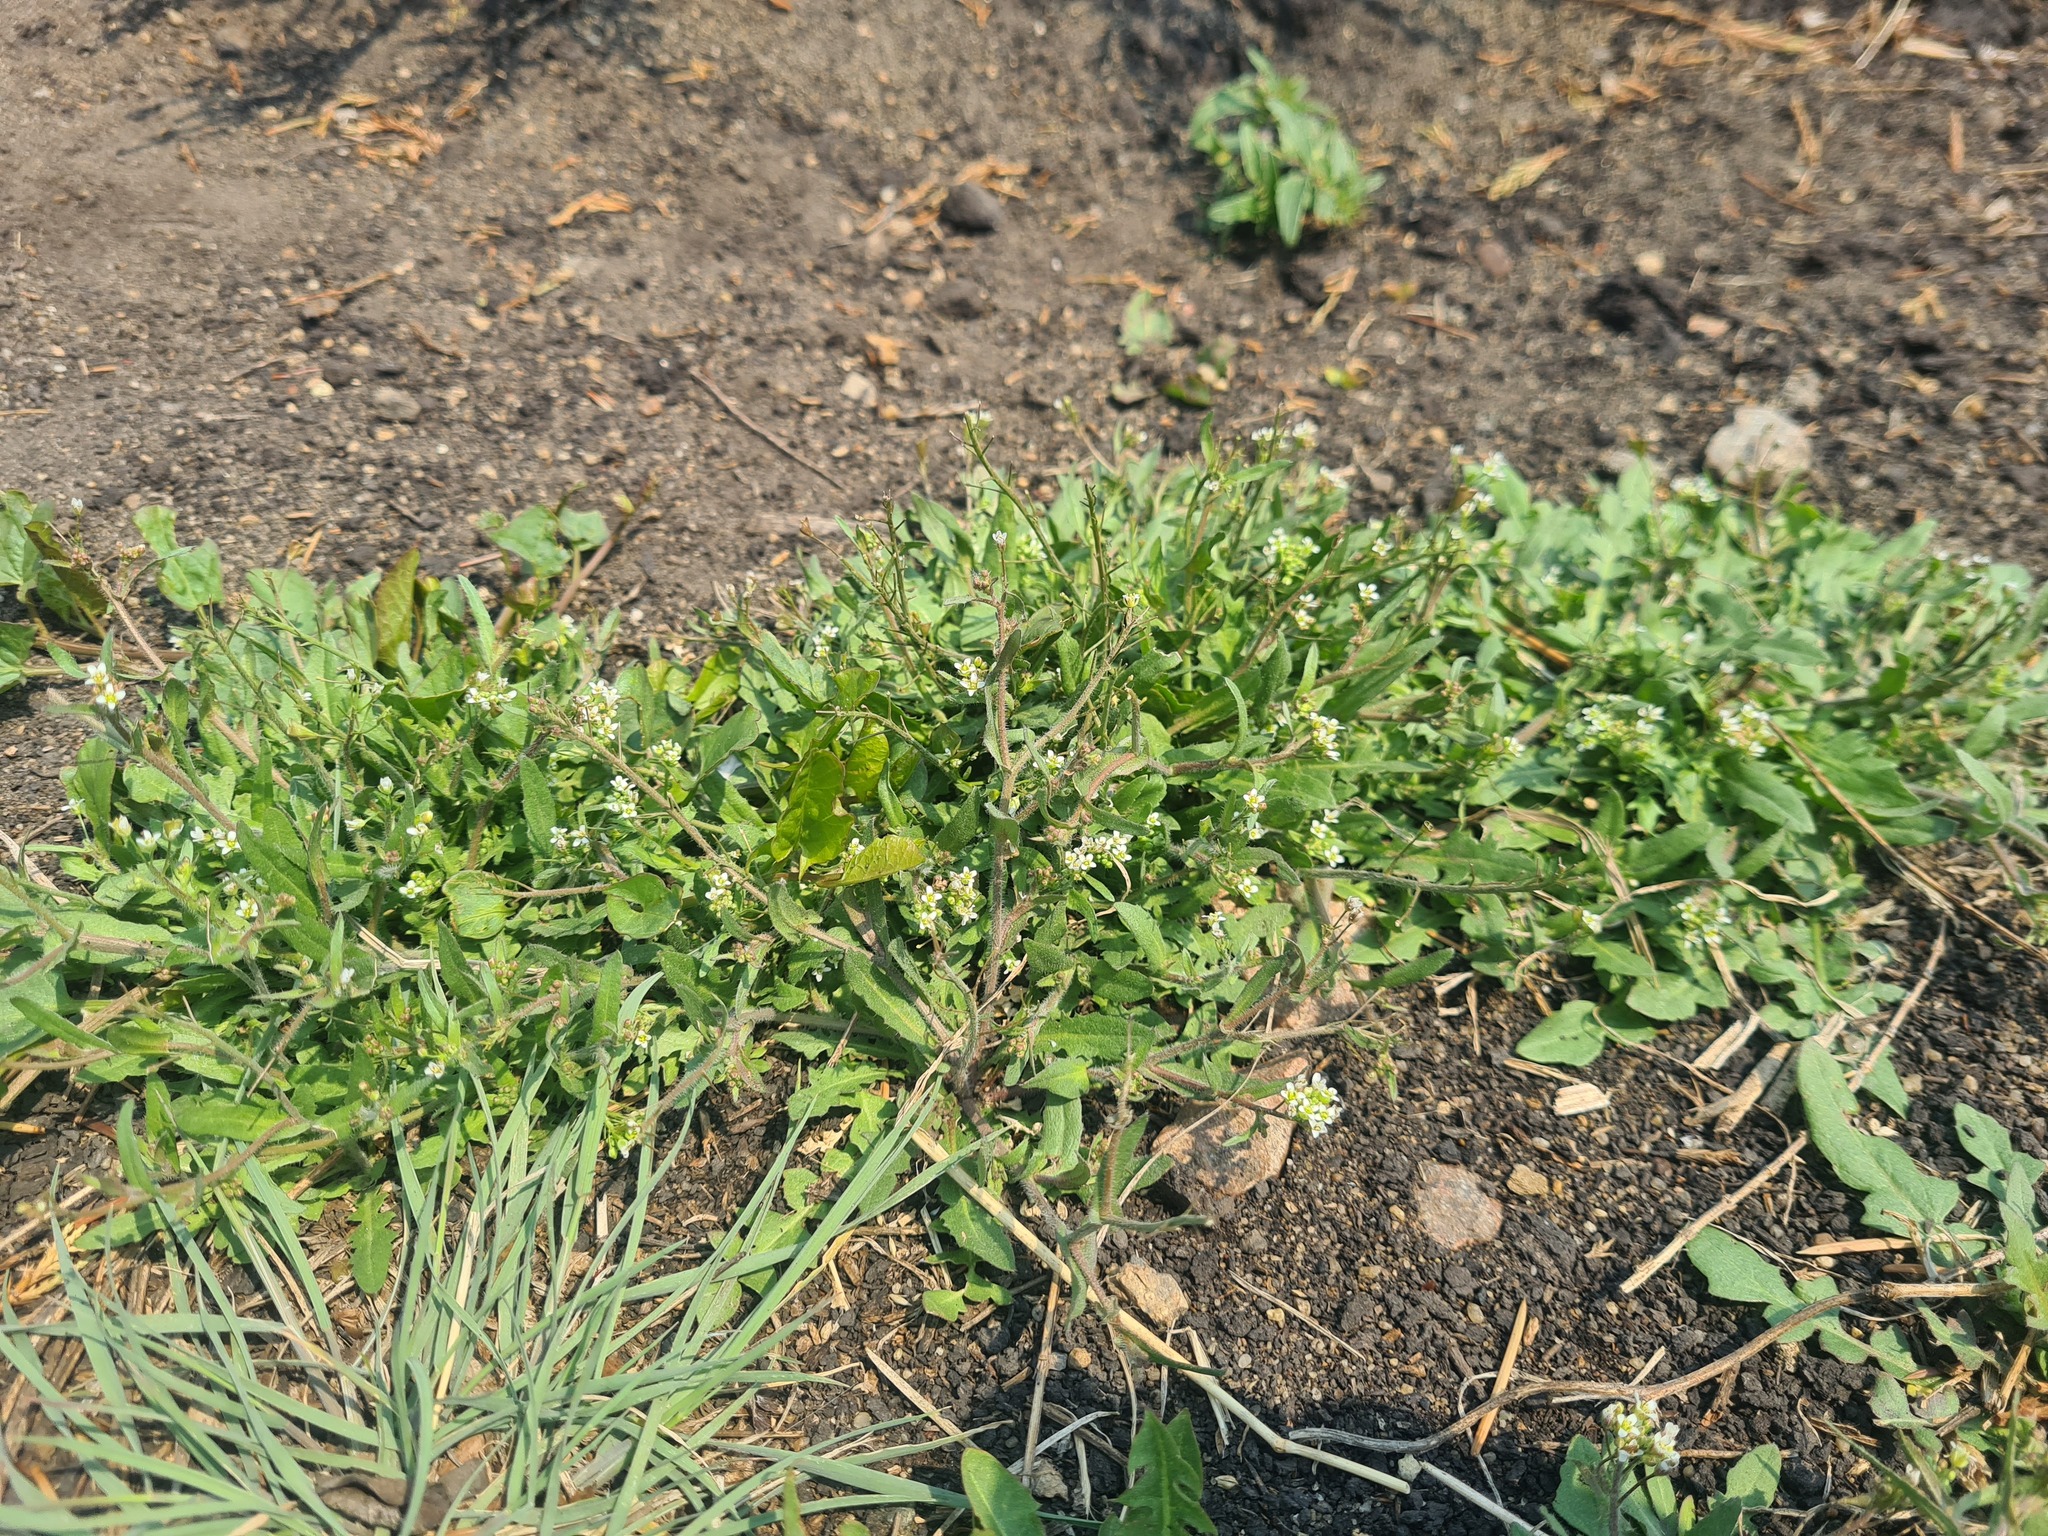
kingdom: Plantae
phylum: Tracheophyta
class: Magnoliopsida
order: Brassicales
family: Brassicaceae
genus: Capsella
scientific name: Capsella bursa-pastoris
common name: Shepherd's purse
